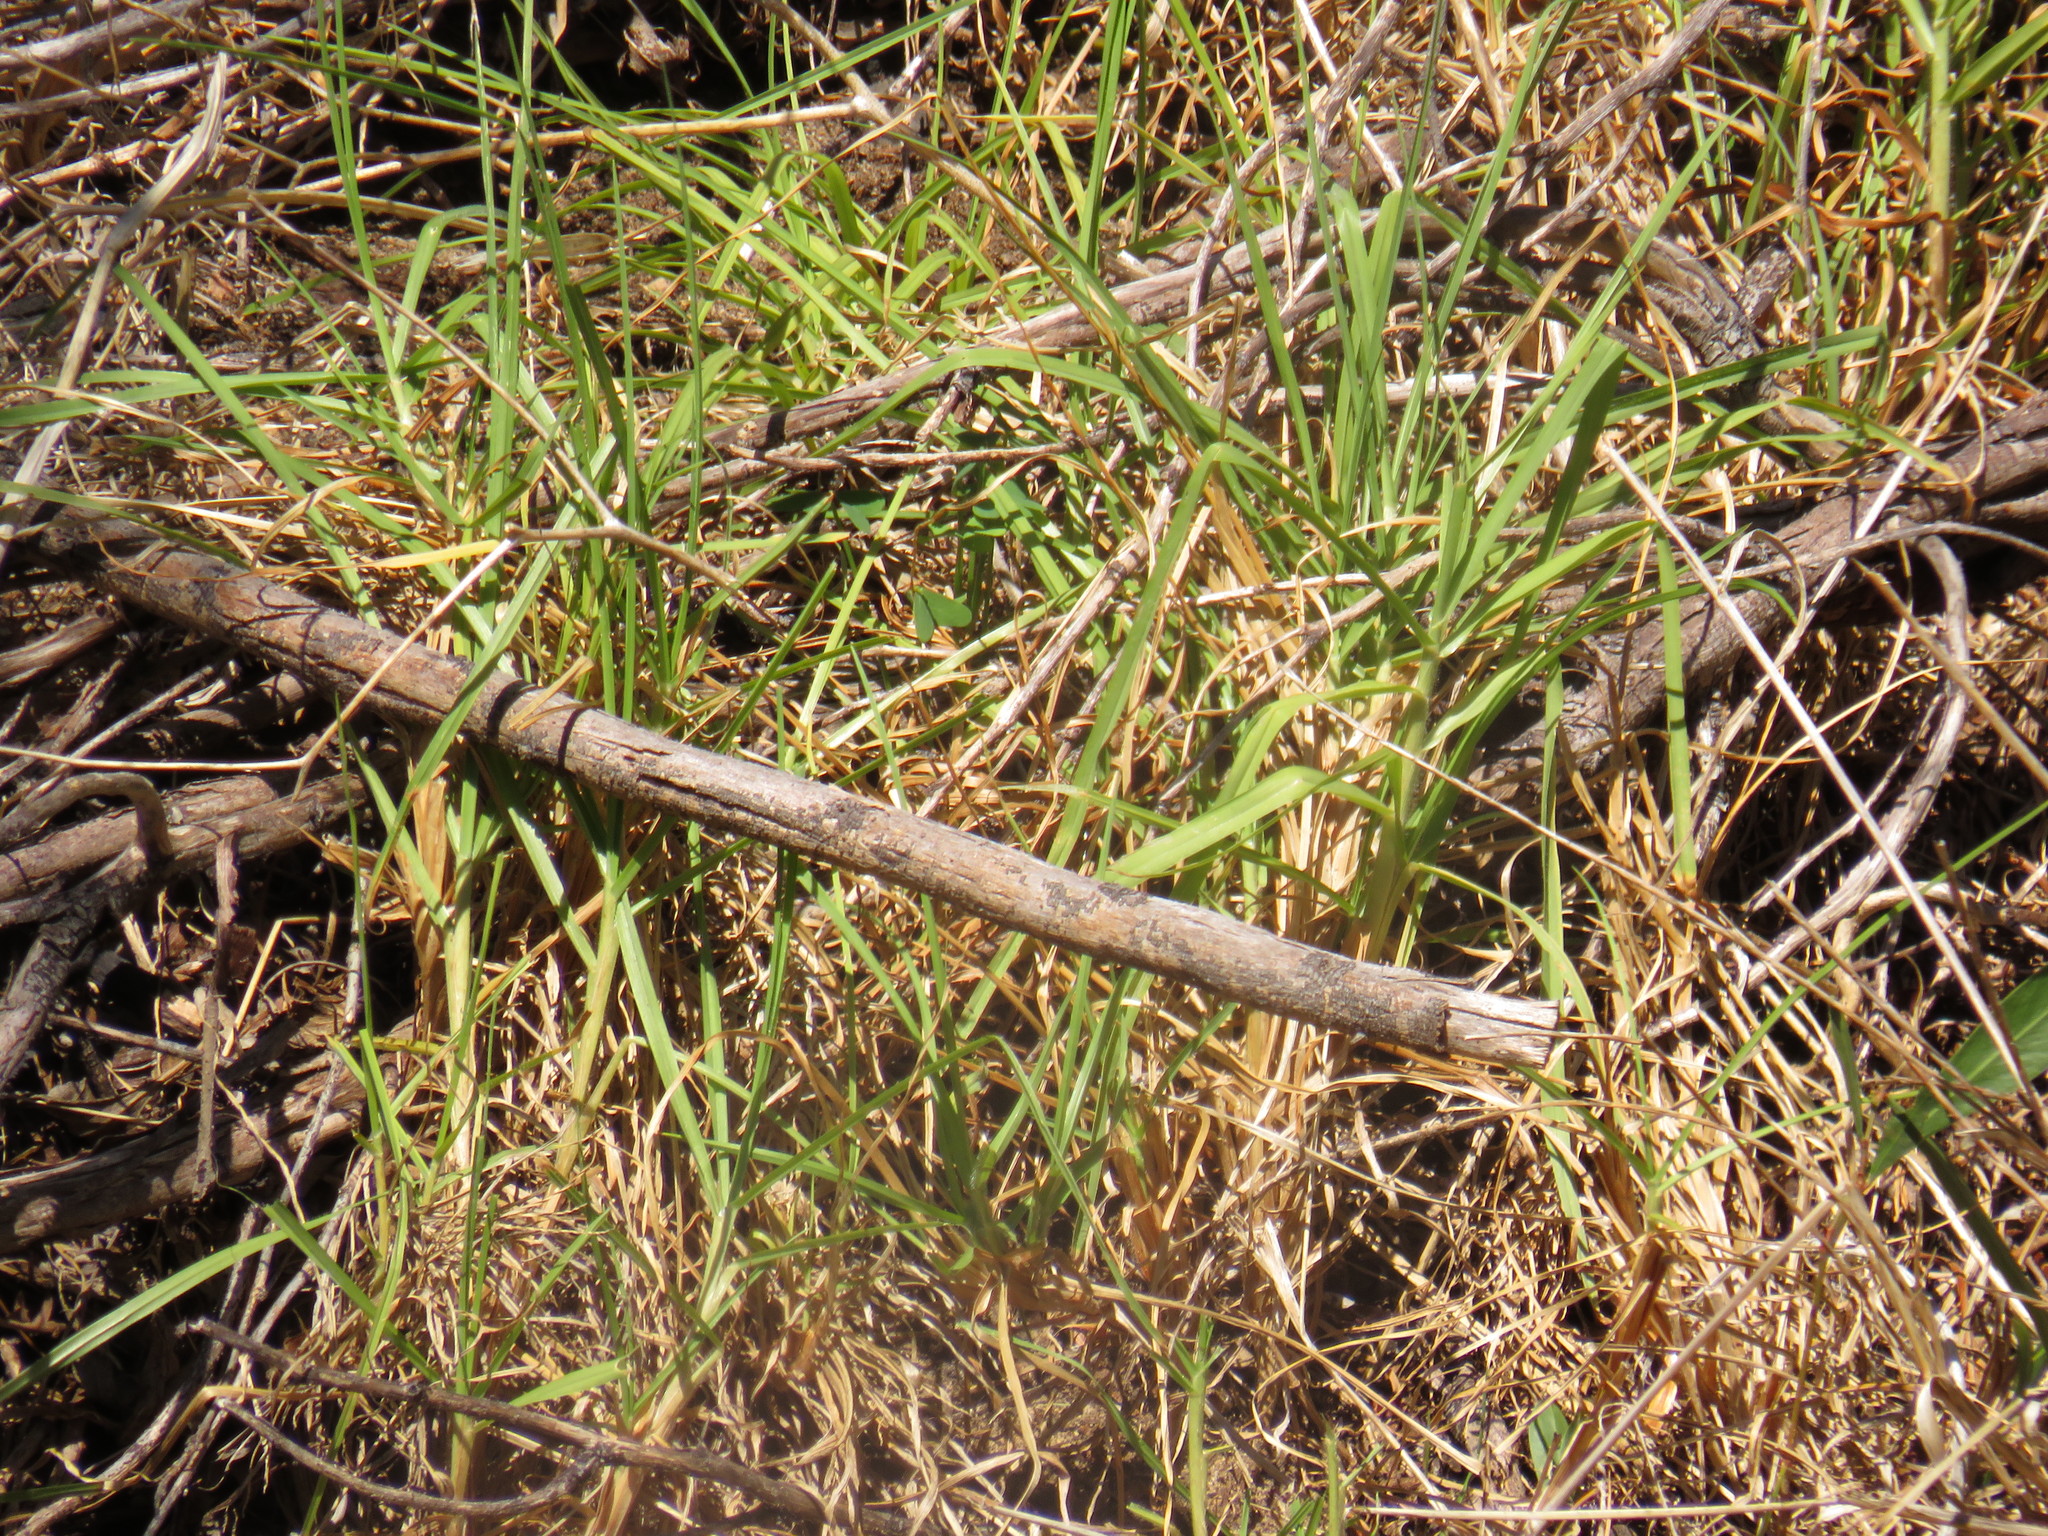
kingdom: Plantae
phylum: Tracheophyta
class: Liliopsida
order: Poales
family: Poaceae
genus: Cenchrus
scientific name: Cenchrus clandestinus
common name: Kikuyugrass
